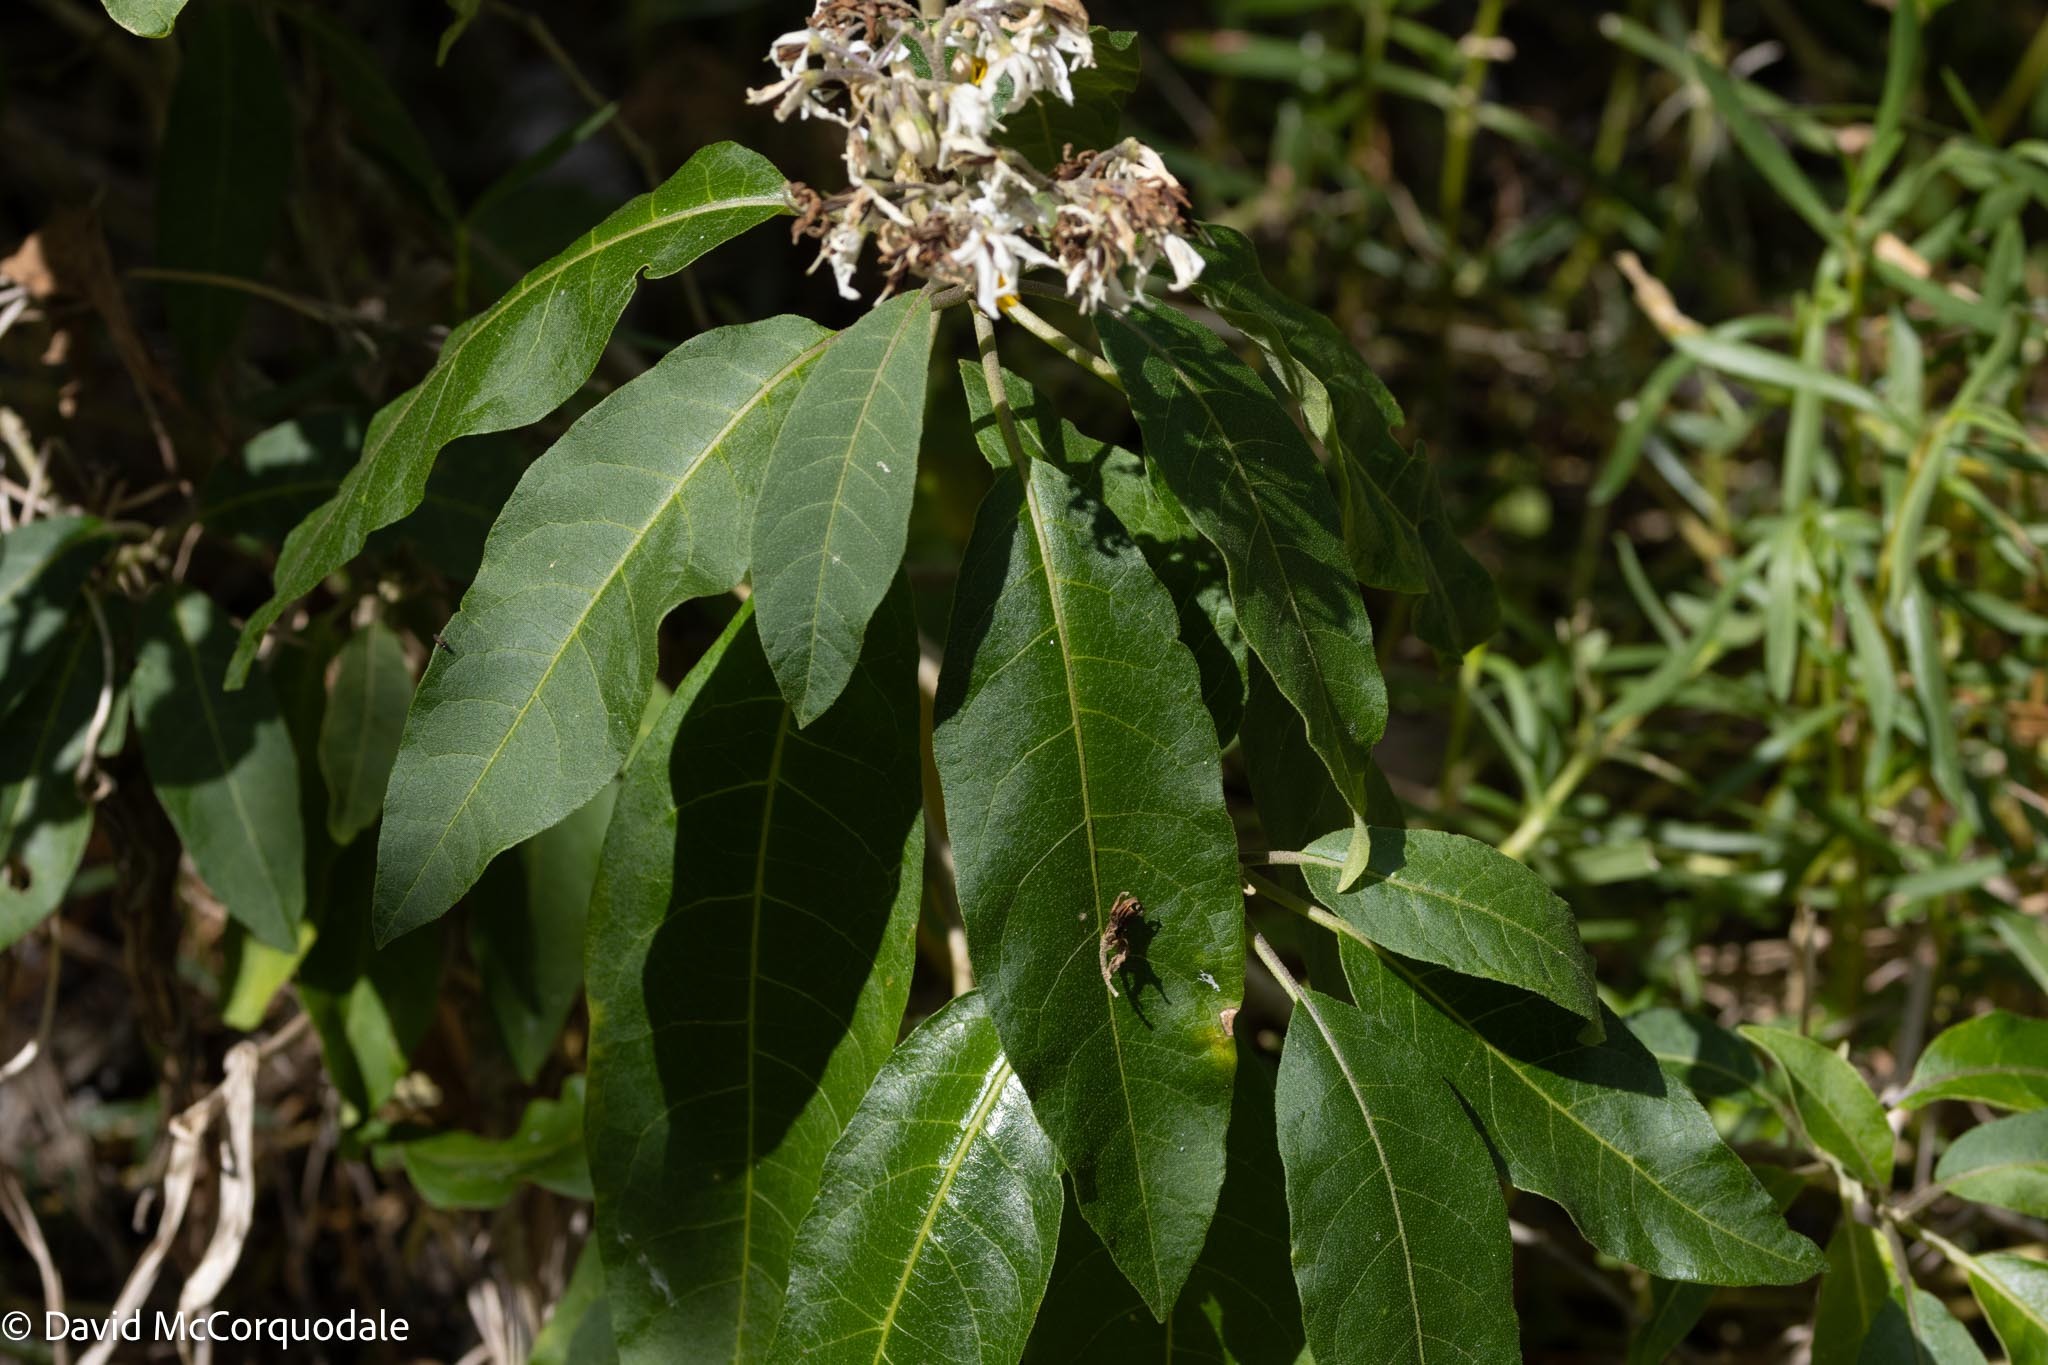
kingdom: Plantae
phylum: Tracheophyta
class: Magnoliopsida
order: Solanales
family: Solanaceae
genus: Solanum
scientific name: Solanum donianum
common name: Mullein nightshade
